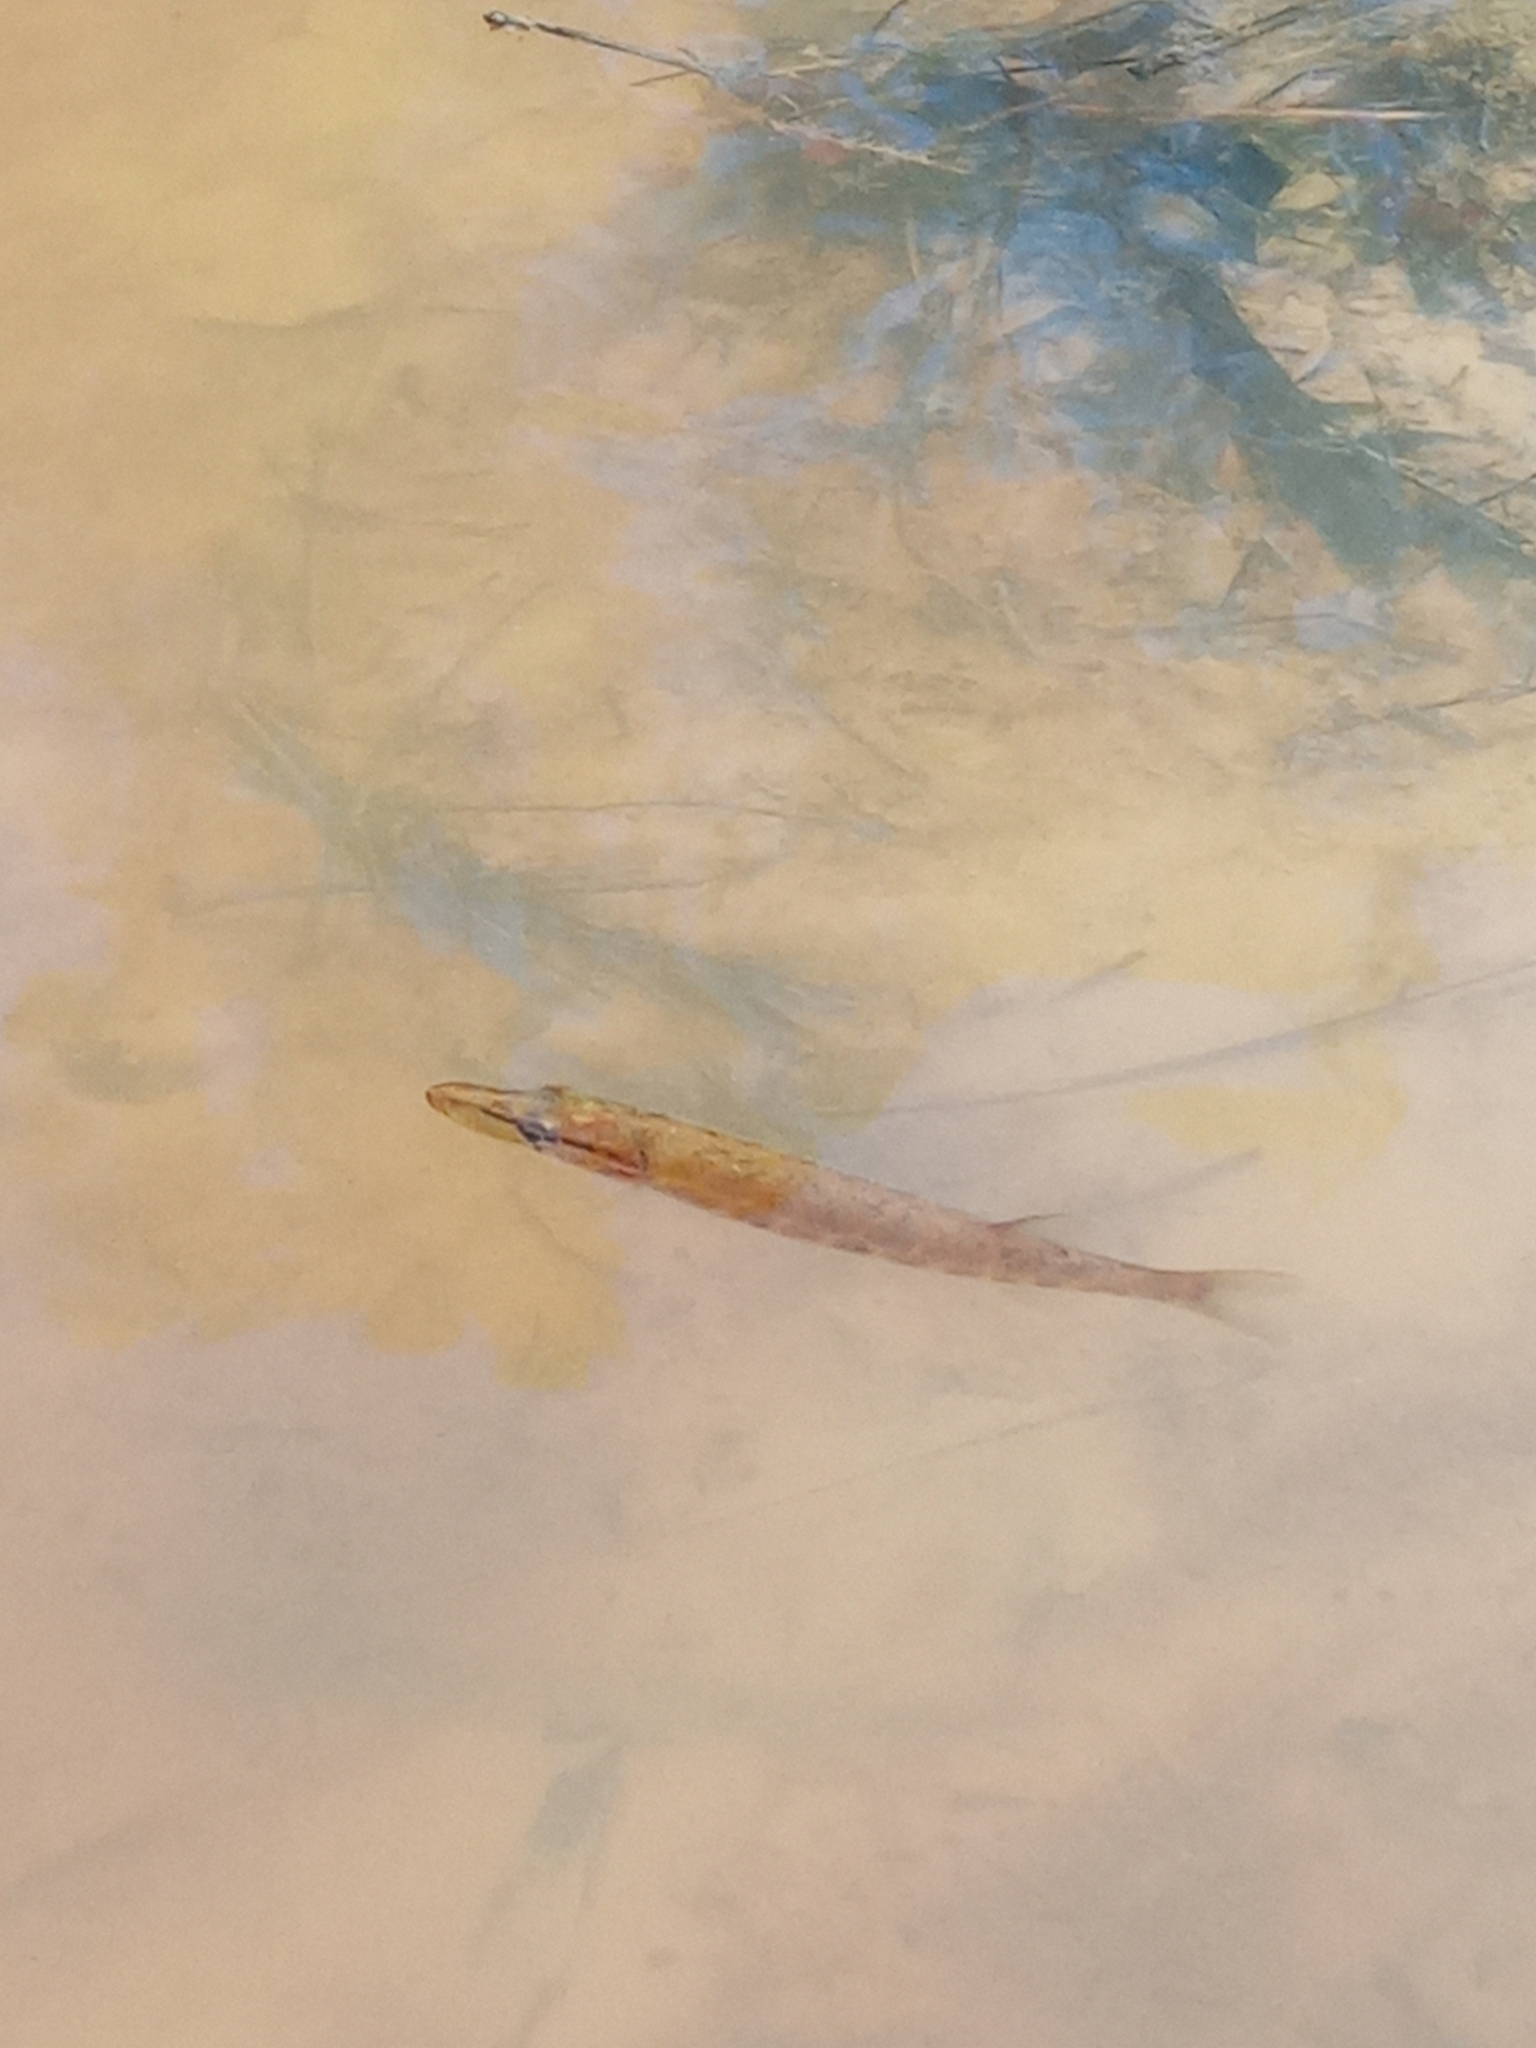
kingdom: Animalia
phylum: Chordata
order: Esociformes
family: Esocidae
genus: Esox
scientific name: Esox americanus
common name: Redfin pickerel
